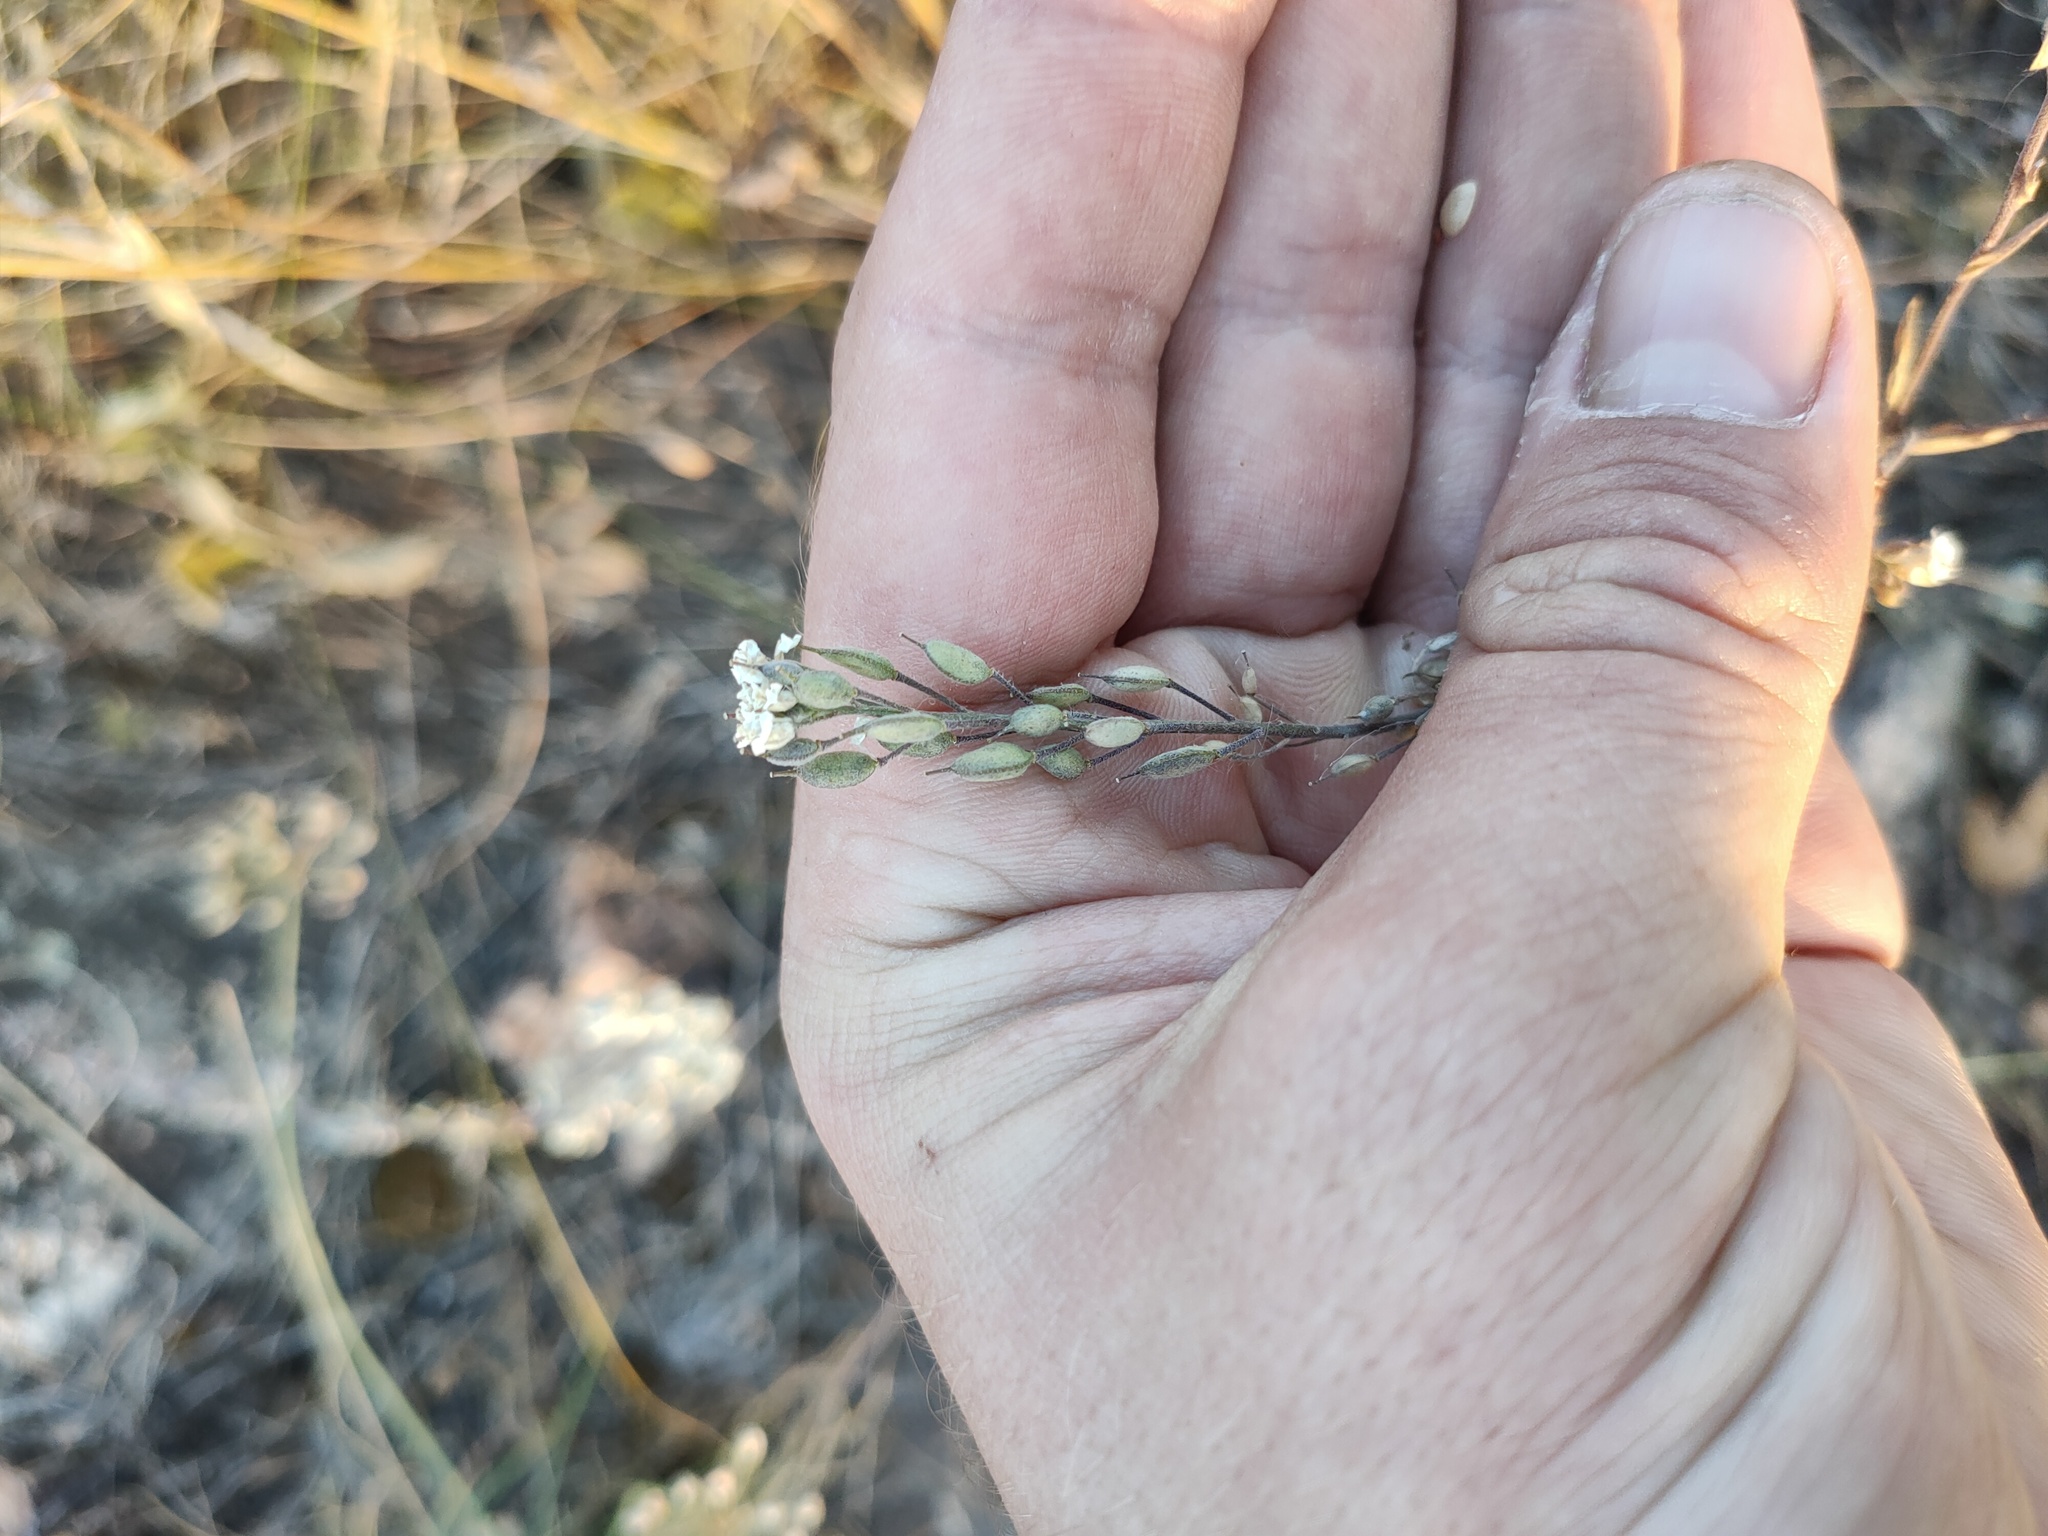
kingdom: Plantae
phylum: Tracheophyta
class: Magnoliopsida
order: Brassicales
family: Brassicaceae
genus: Berteroa
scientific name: Berteroa incana
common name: Hoary alison
